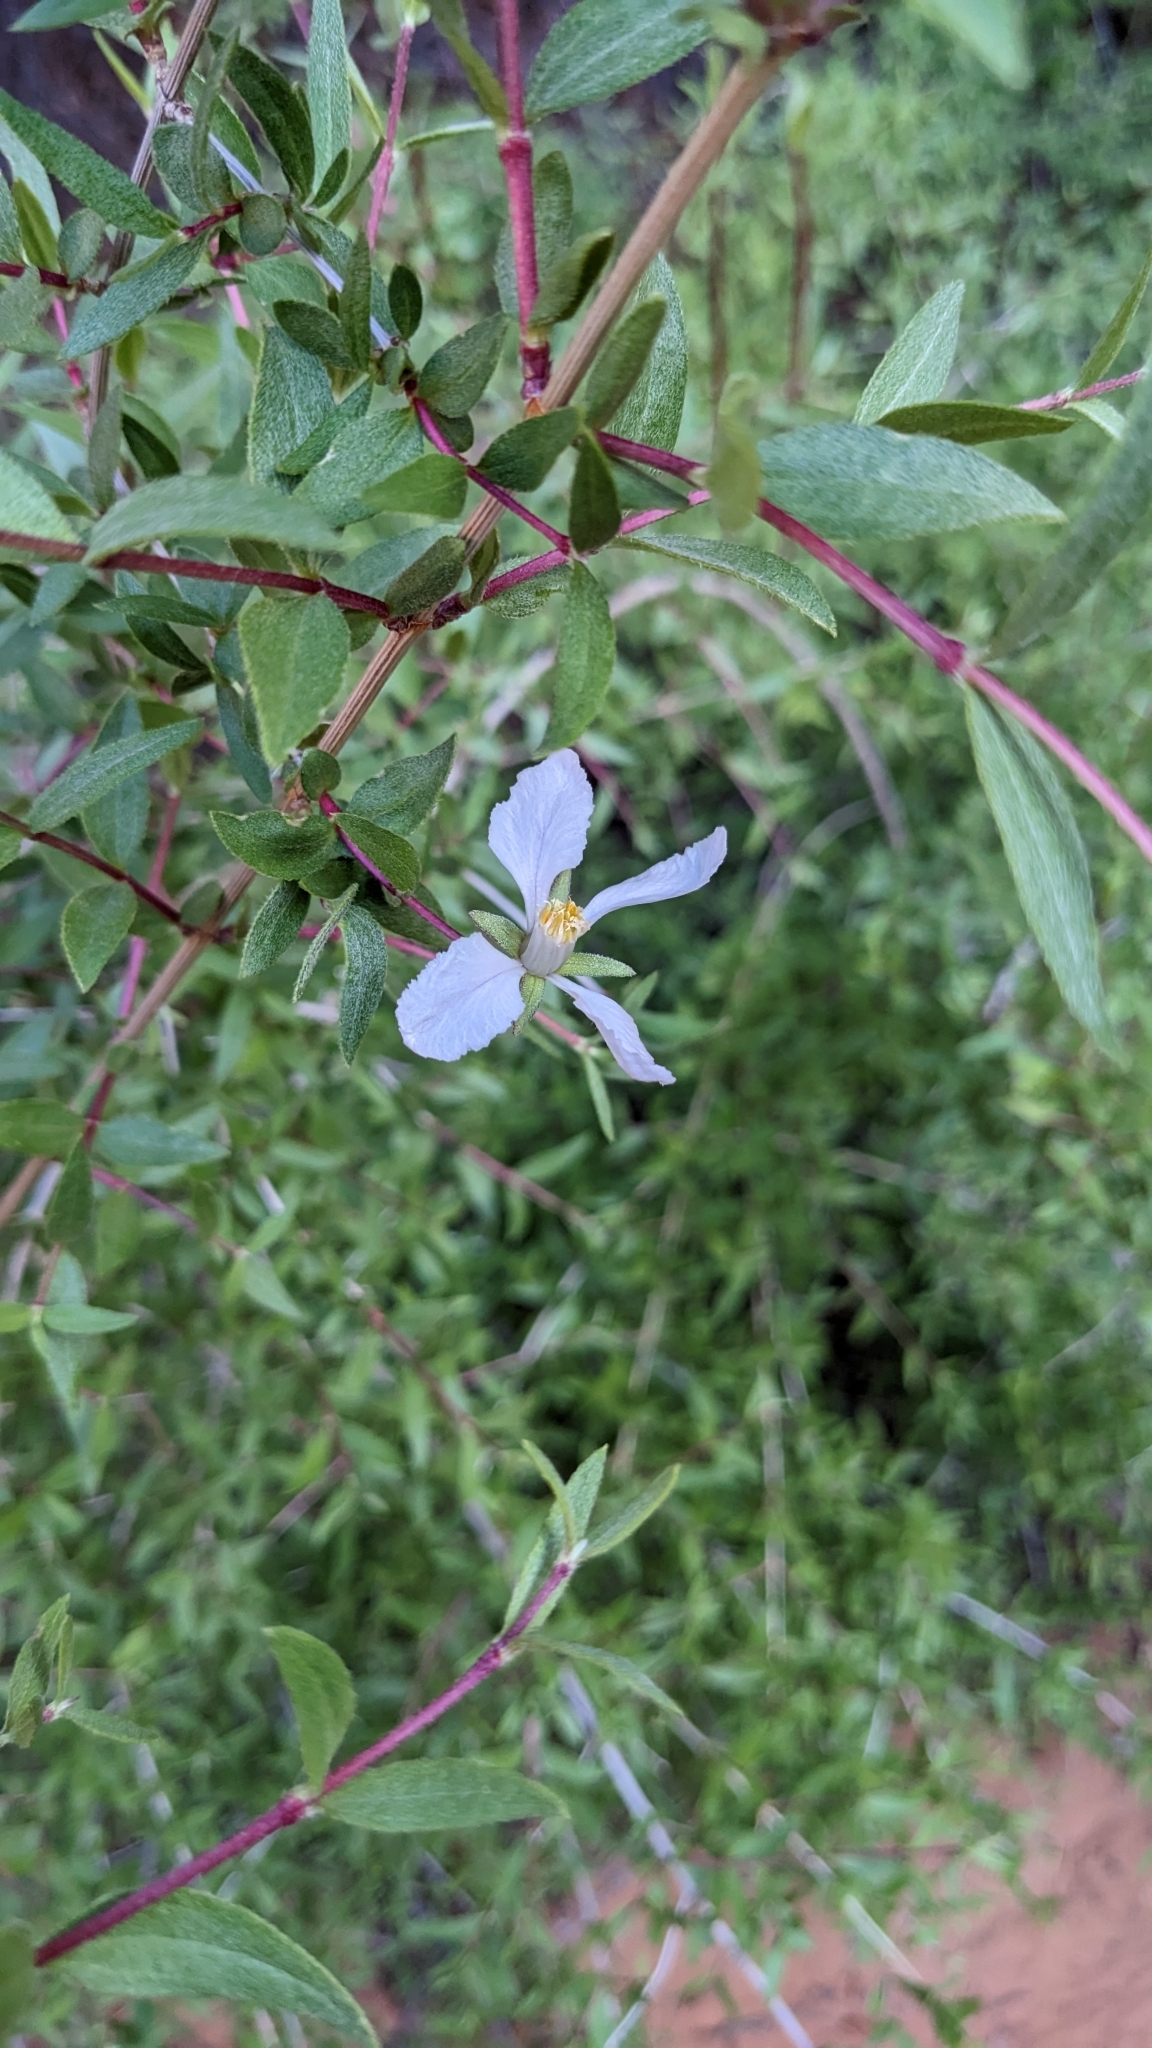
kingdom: Plantae
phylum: Tracheophyta
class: Magnoliopsida
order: Cornales
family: Hydrangeaceae
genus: Fendlera
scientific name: Fendlera rupicola
